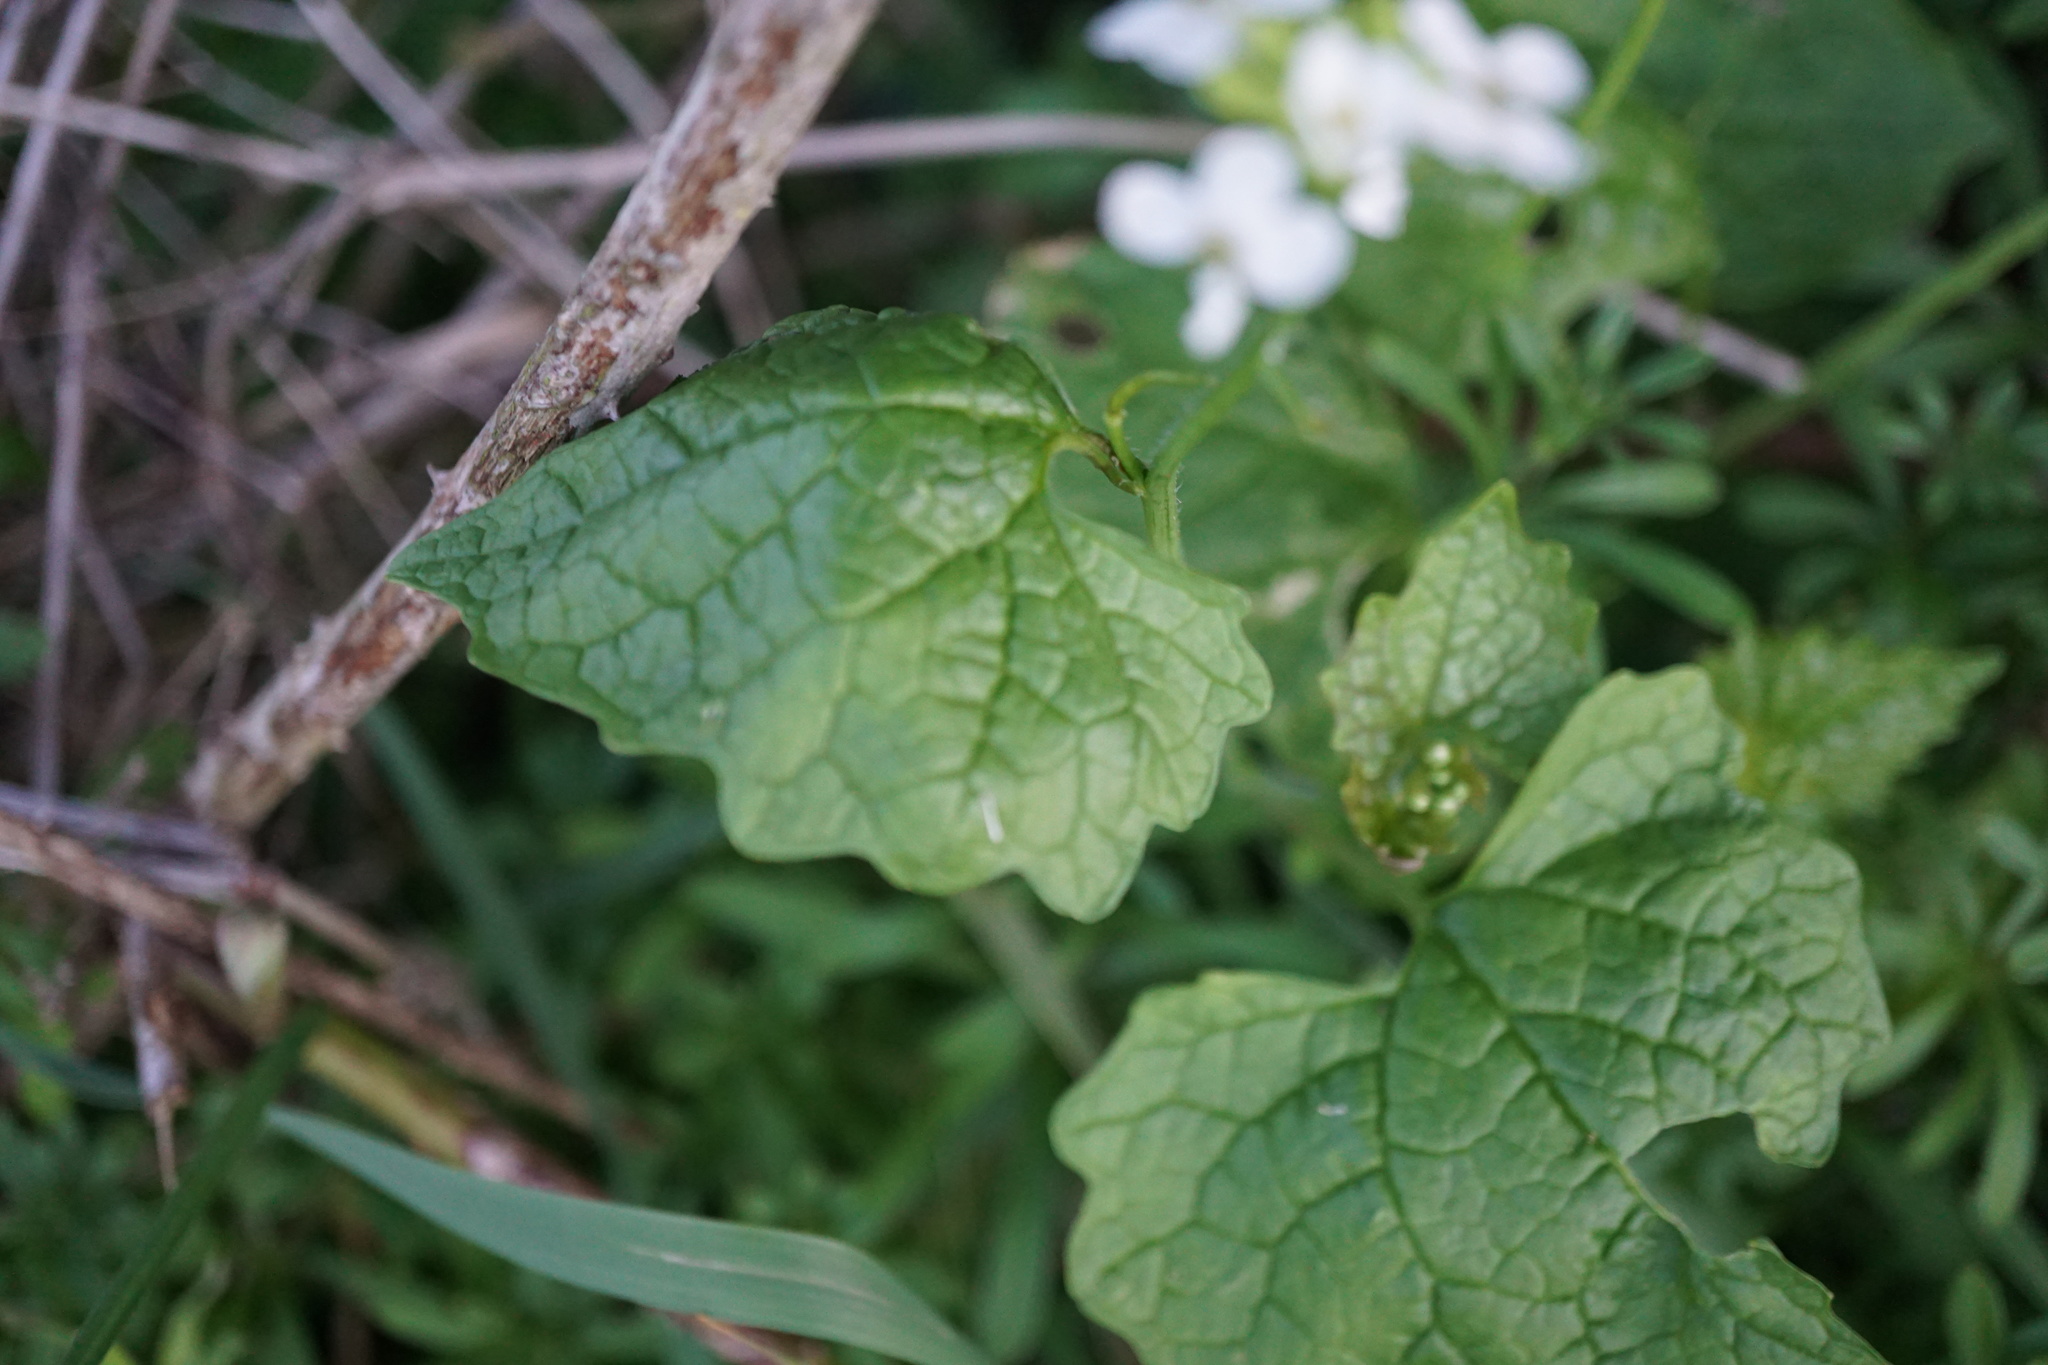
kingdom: Plantae
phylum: Tracheophyta
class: Magnoliopsida
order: Brassicales
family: Brassicaceae
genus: Alliaria
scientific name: Alliaria petiolata
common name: Garlic mustard
